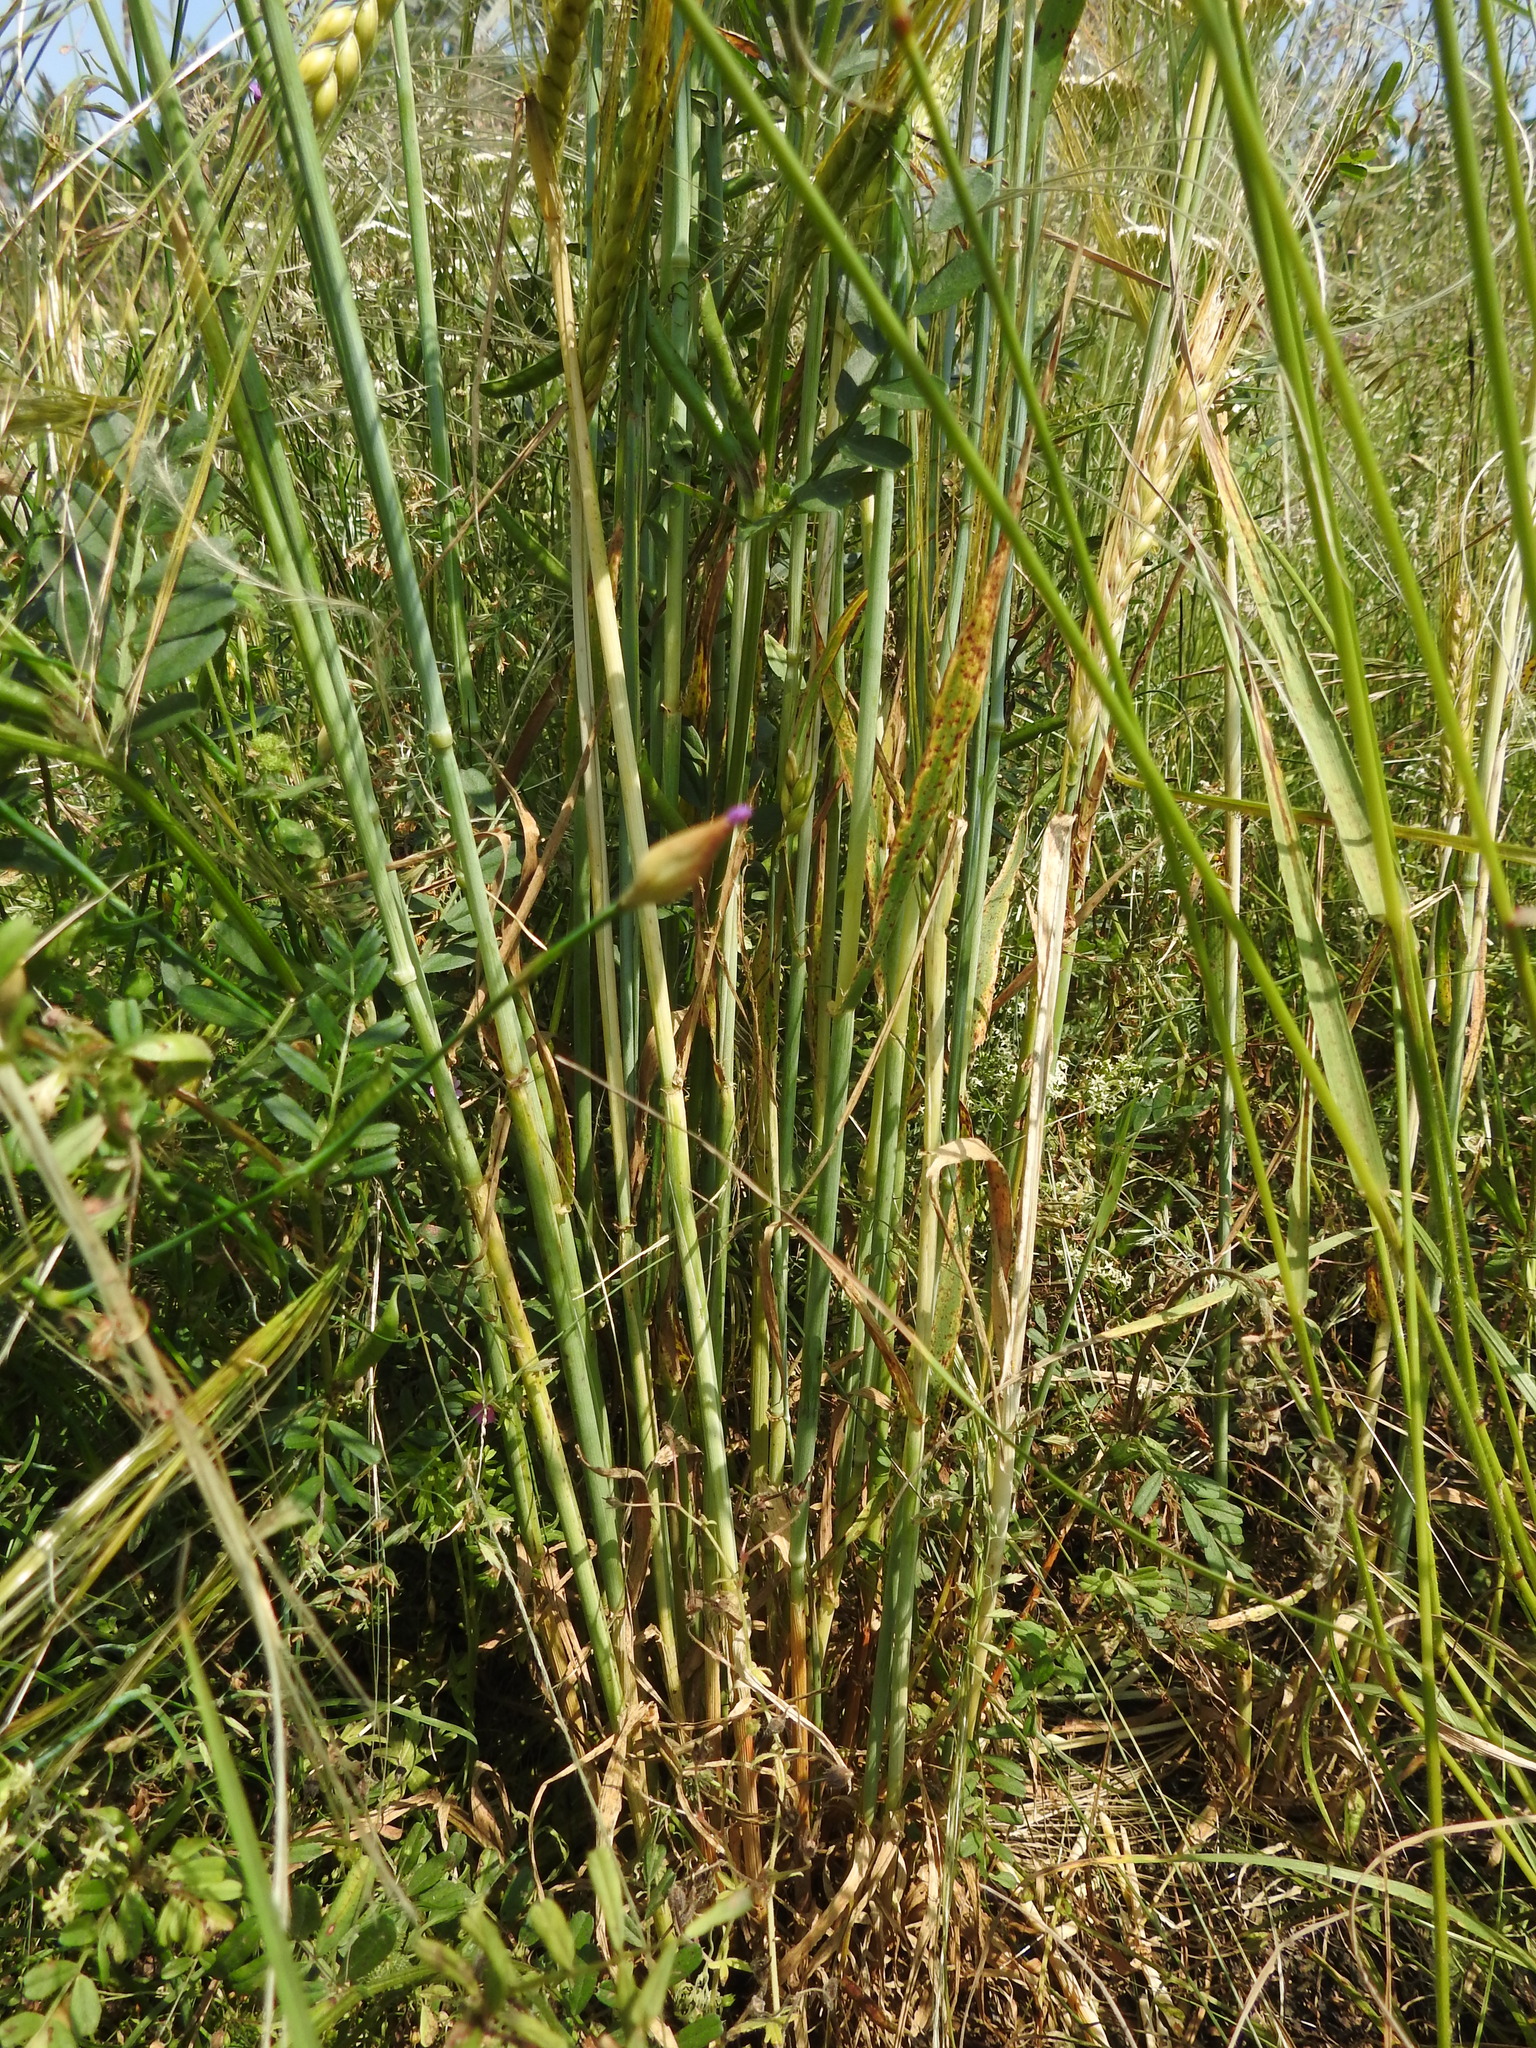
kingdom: Plantae
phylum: Tracheophyta
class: Liliopsida
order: Poales
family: Poaceae
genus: Hordeum
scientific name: Hordeum vulgare
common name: Common barley
